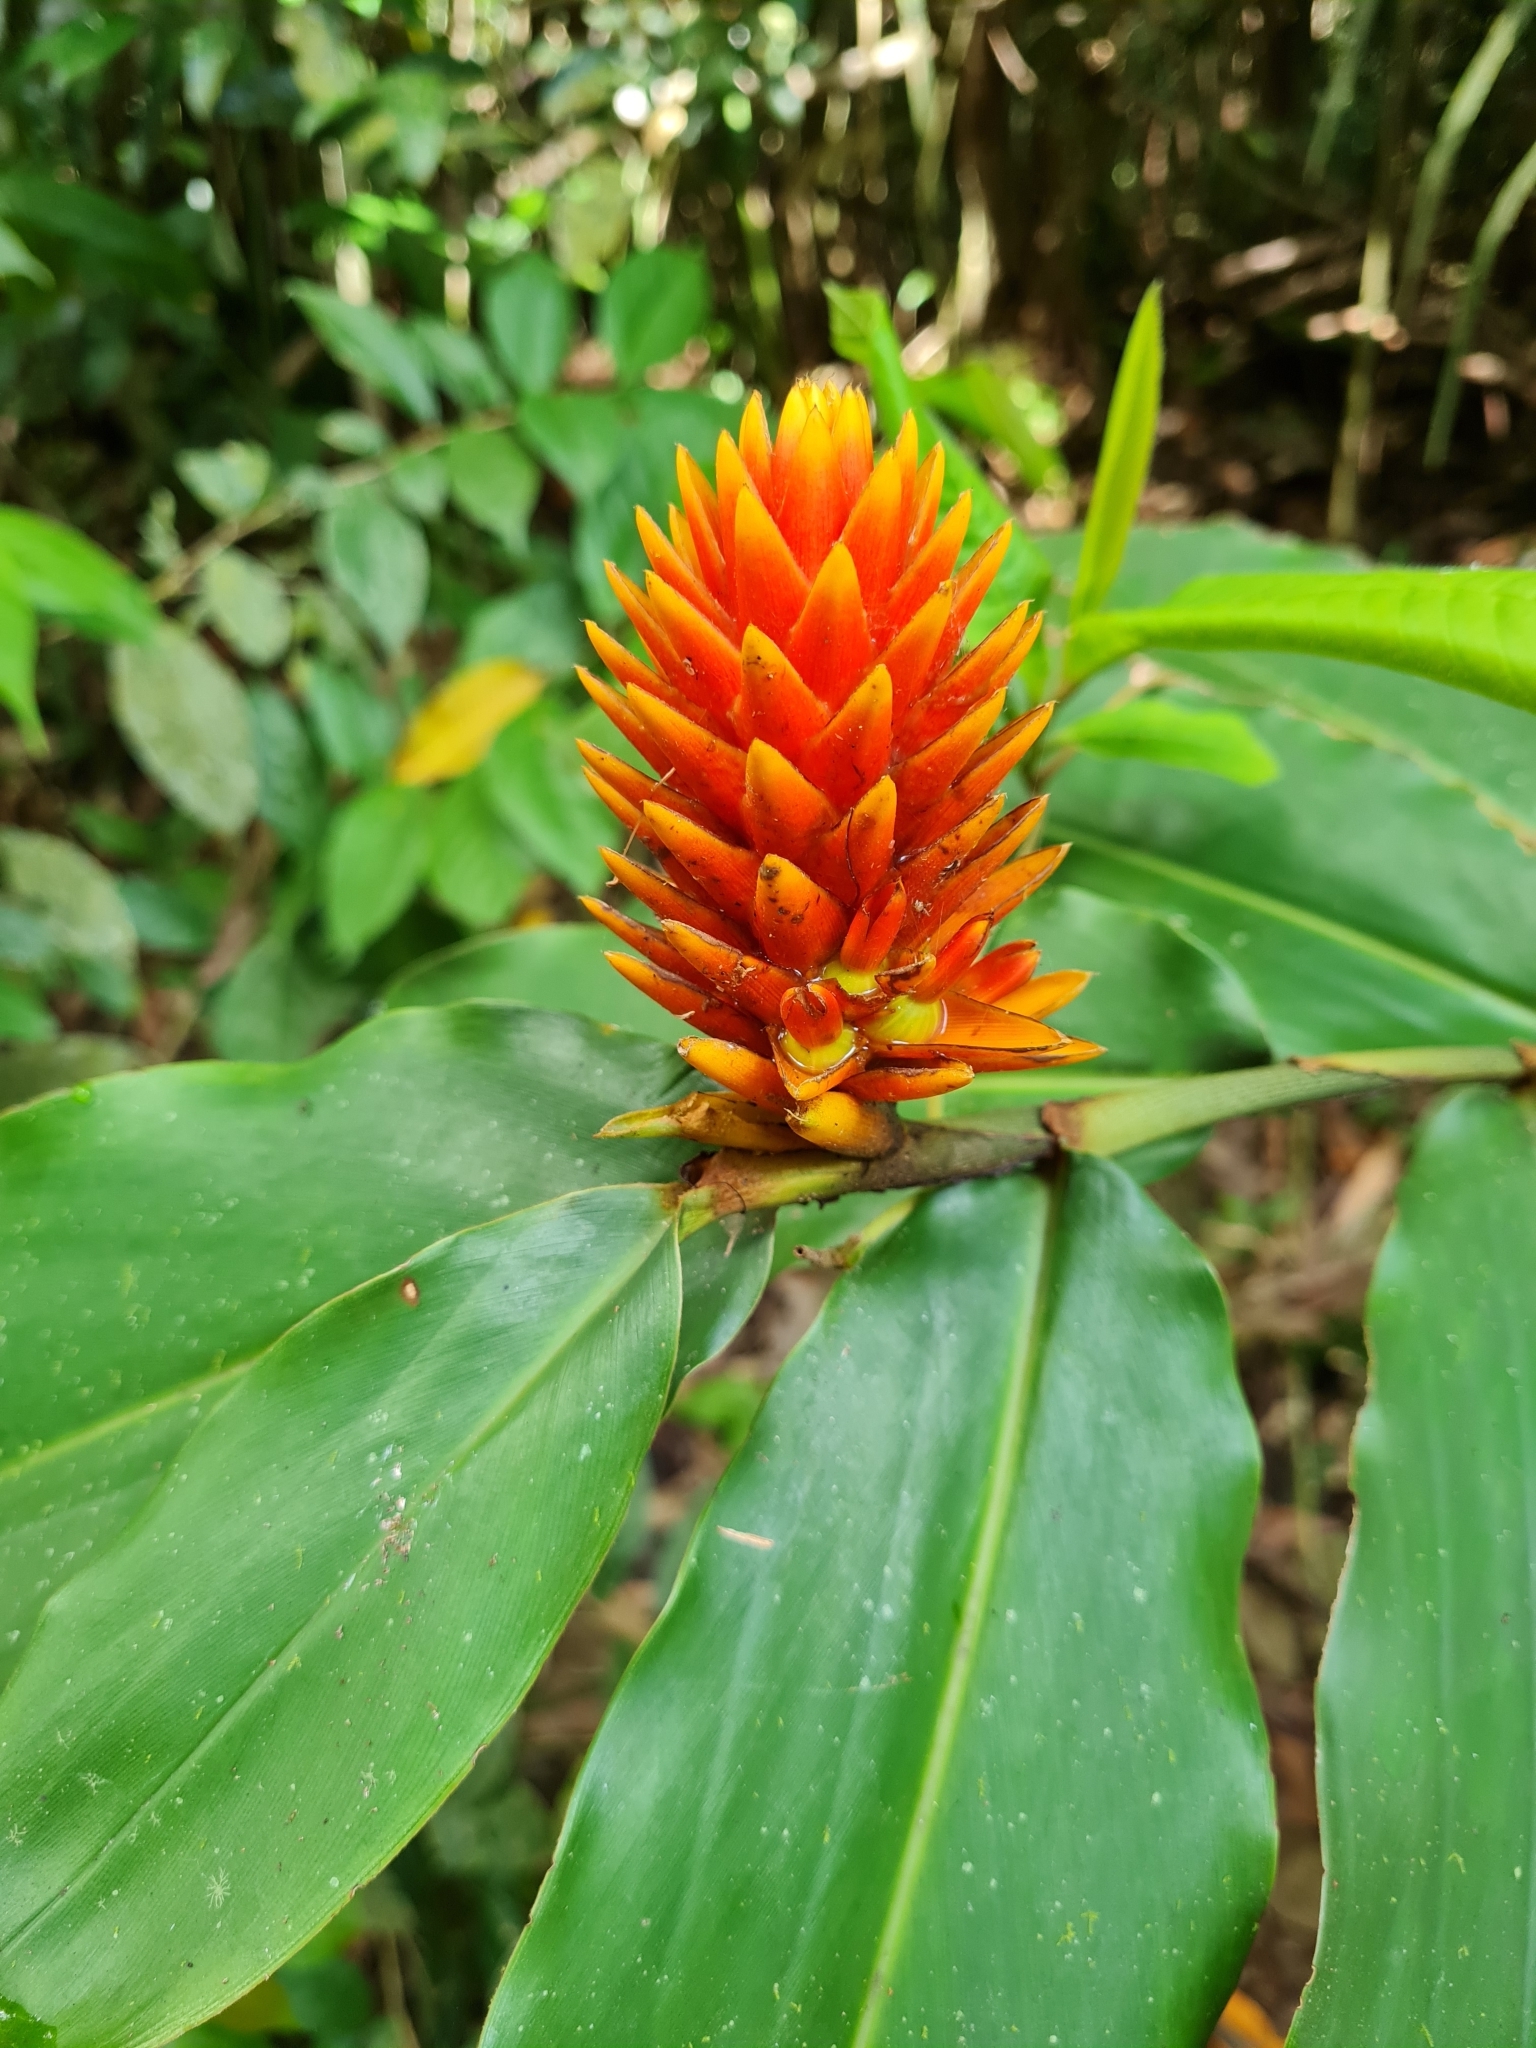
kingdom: Plantae
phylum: Tracheophyta
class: Liliopsida
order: Zingiberales
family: Zingiberaceae
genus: Renealmia
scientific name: Renealmia cernua
